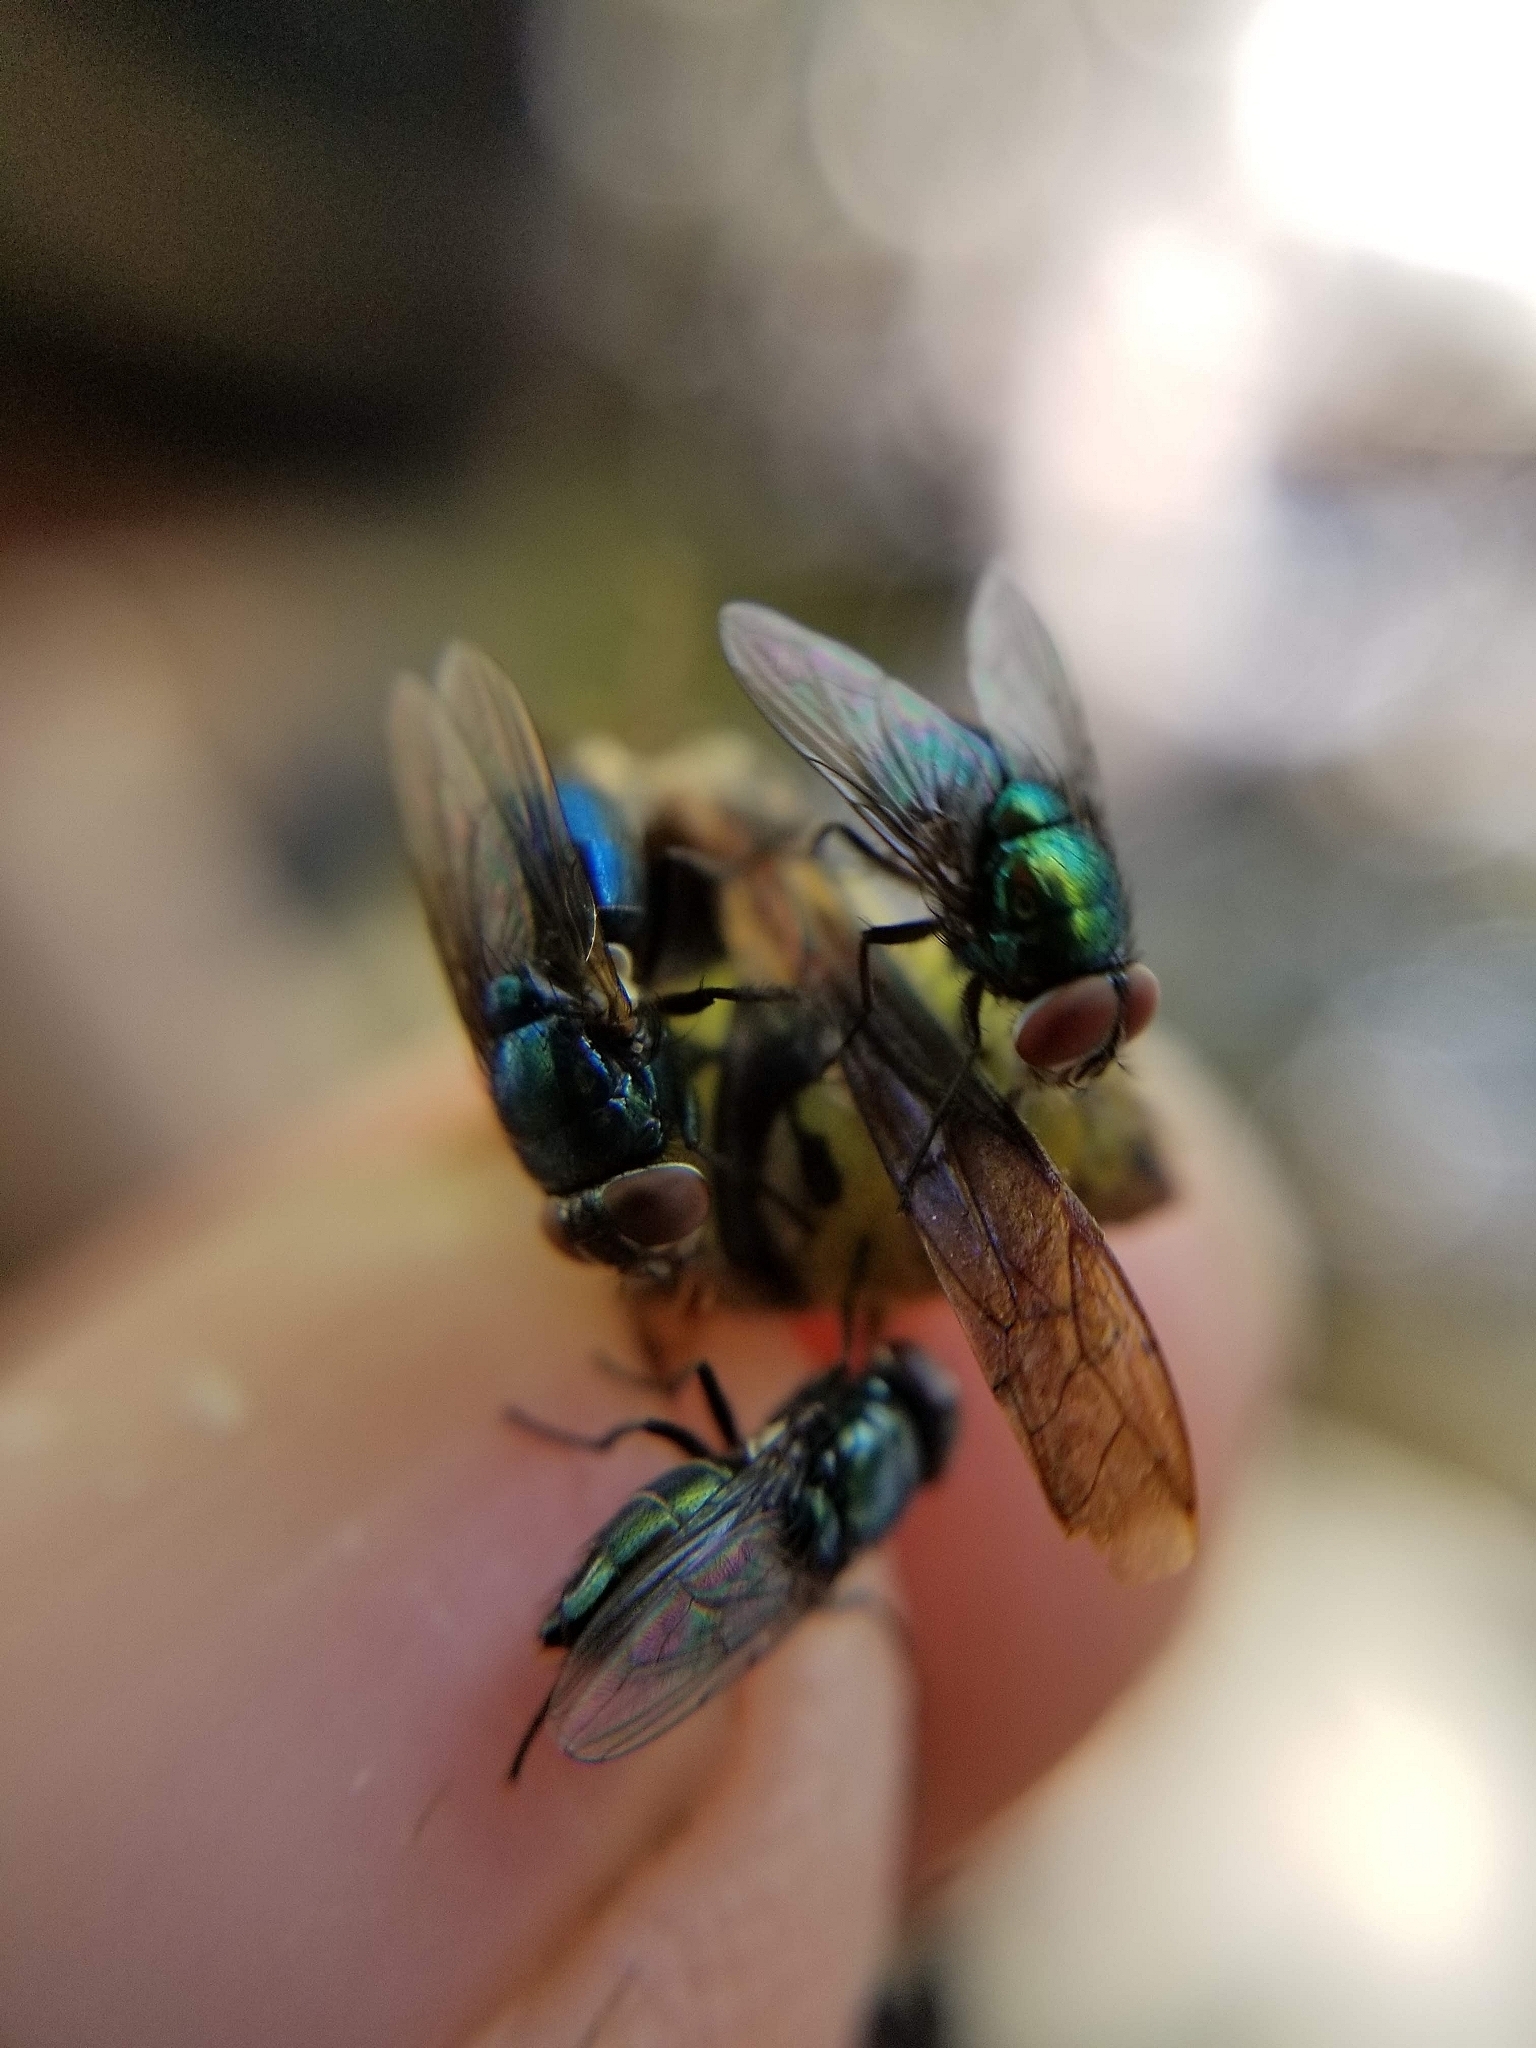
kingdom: Animalia
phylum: Arthropoda
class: Insecta
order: Diptera
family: Calliphoridae
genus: Phormia
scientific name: Phormia regina
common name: Black blow fly
